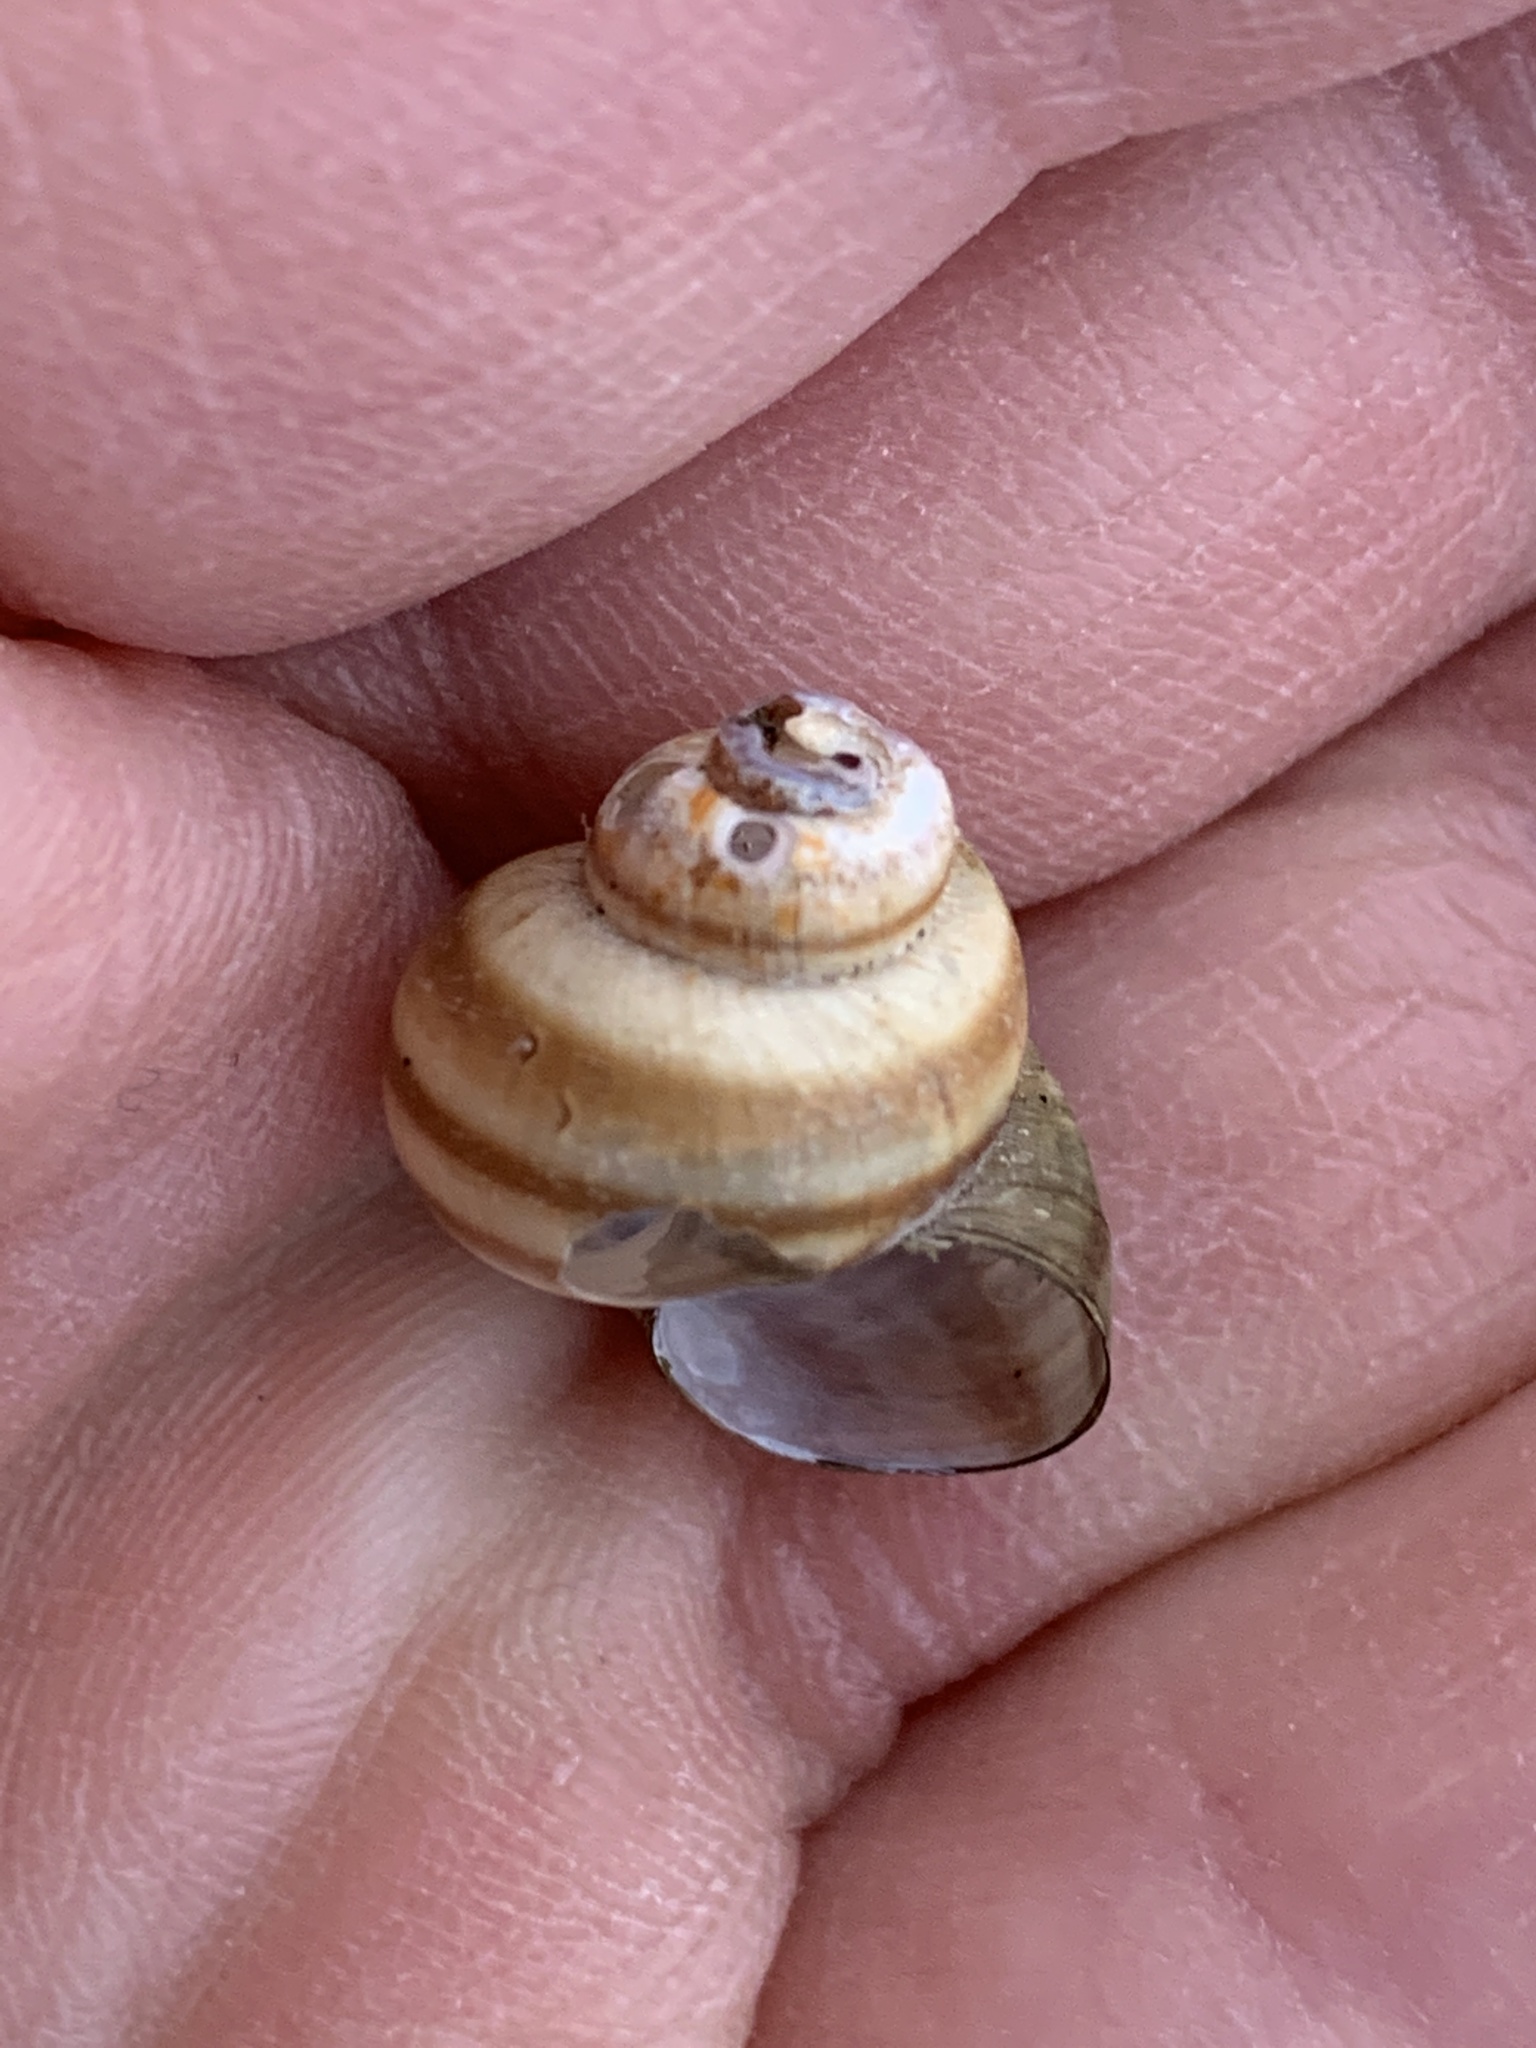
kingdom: Animalia
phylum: Mollusca
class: Gastropoda
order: Architaenioglossa
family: Viviparidae
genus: Callinina
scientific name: Callinina georgiana
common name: Banded mystery snail
